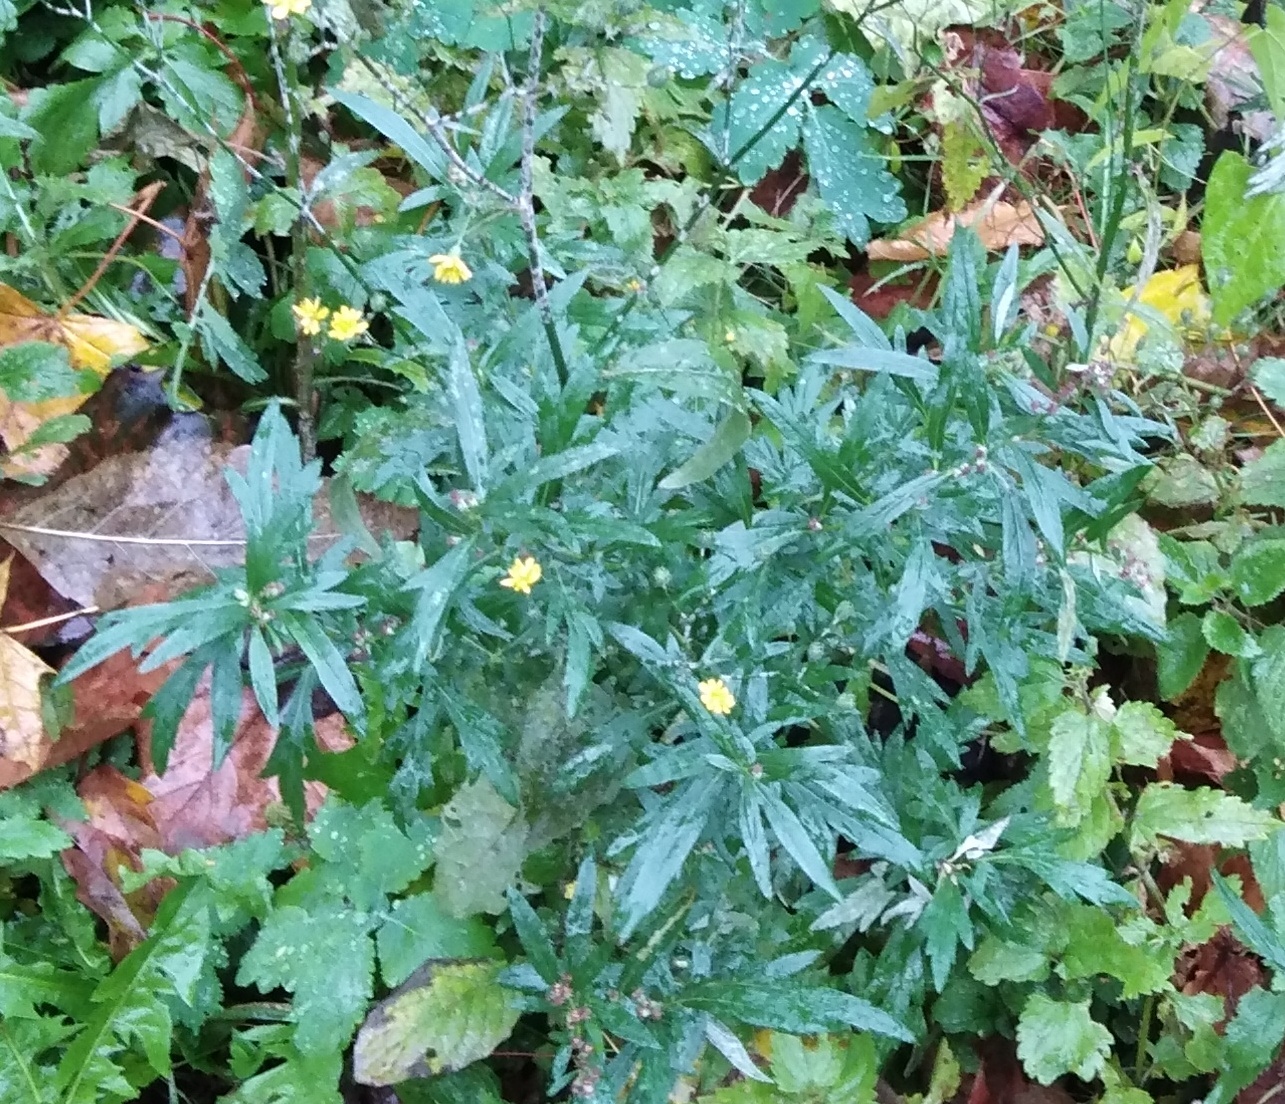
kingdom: Plantae
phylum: Tracheophyta
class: Magnoliopsida
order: Asterales
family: Asteraceae
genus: Artemisia
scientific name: Artemisia vulgaris
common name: Mugwort
